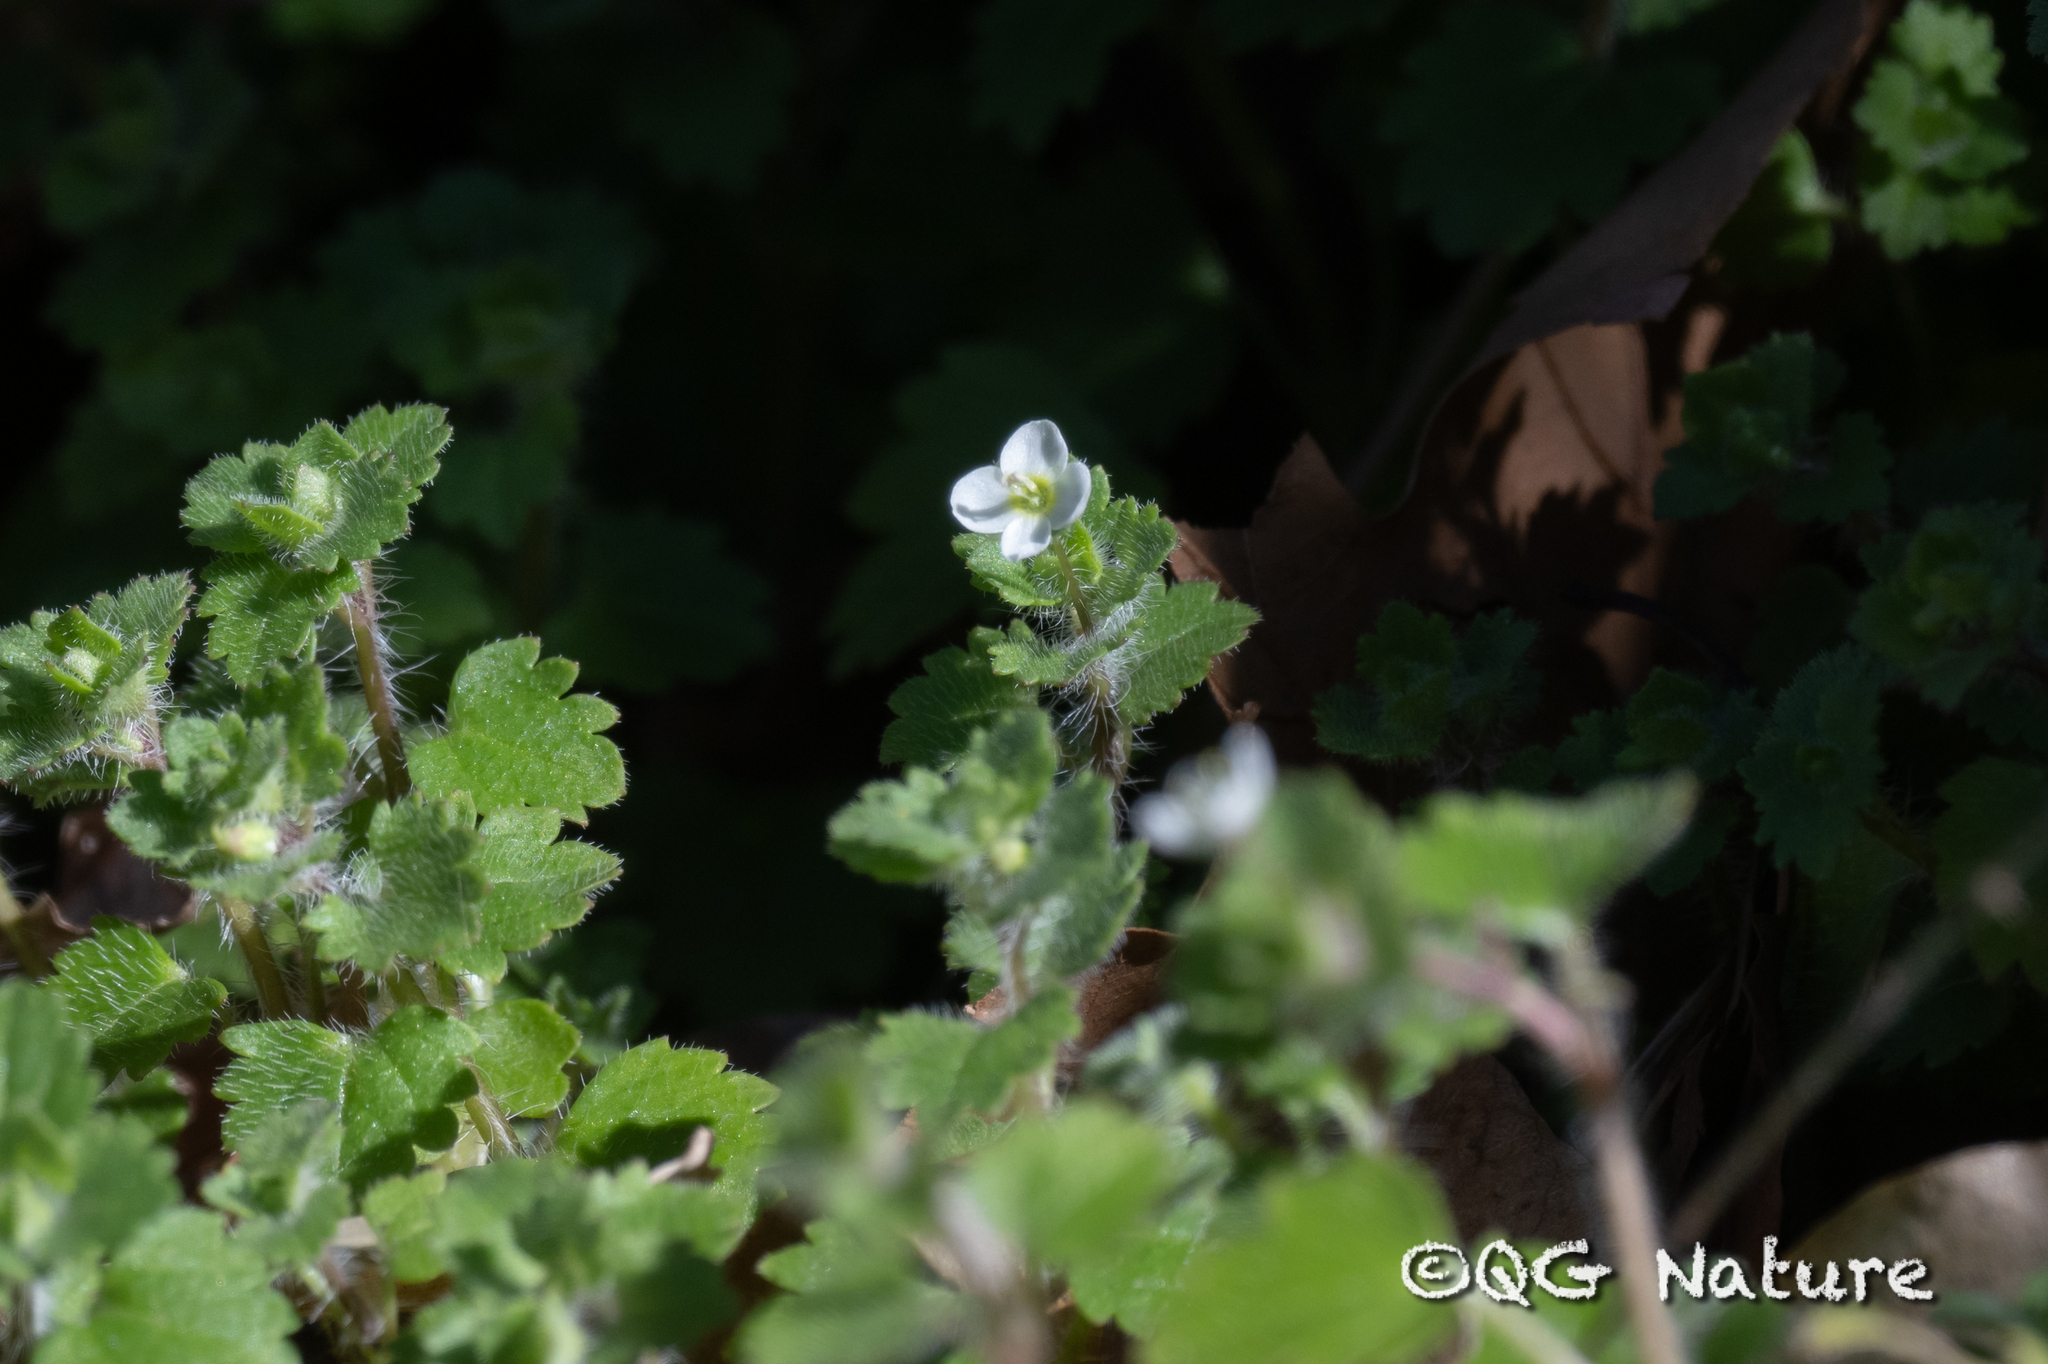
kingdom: Plantae
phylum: Tracheophyta
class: Magnoliopsida
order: Lamiales
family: Plantaginaceae
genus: Veronica
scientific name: Veronica cymbalaria
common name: Pale speedwell
